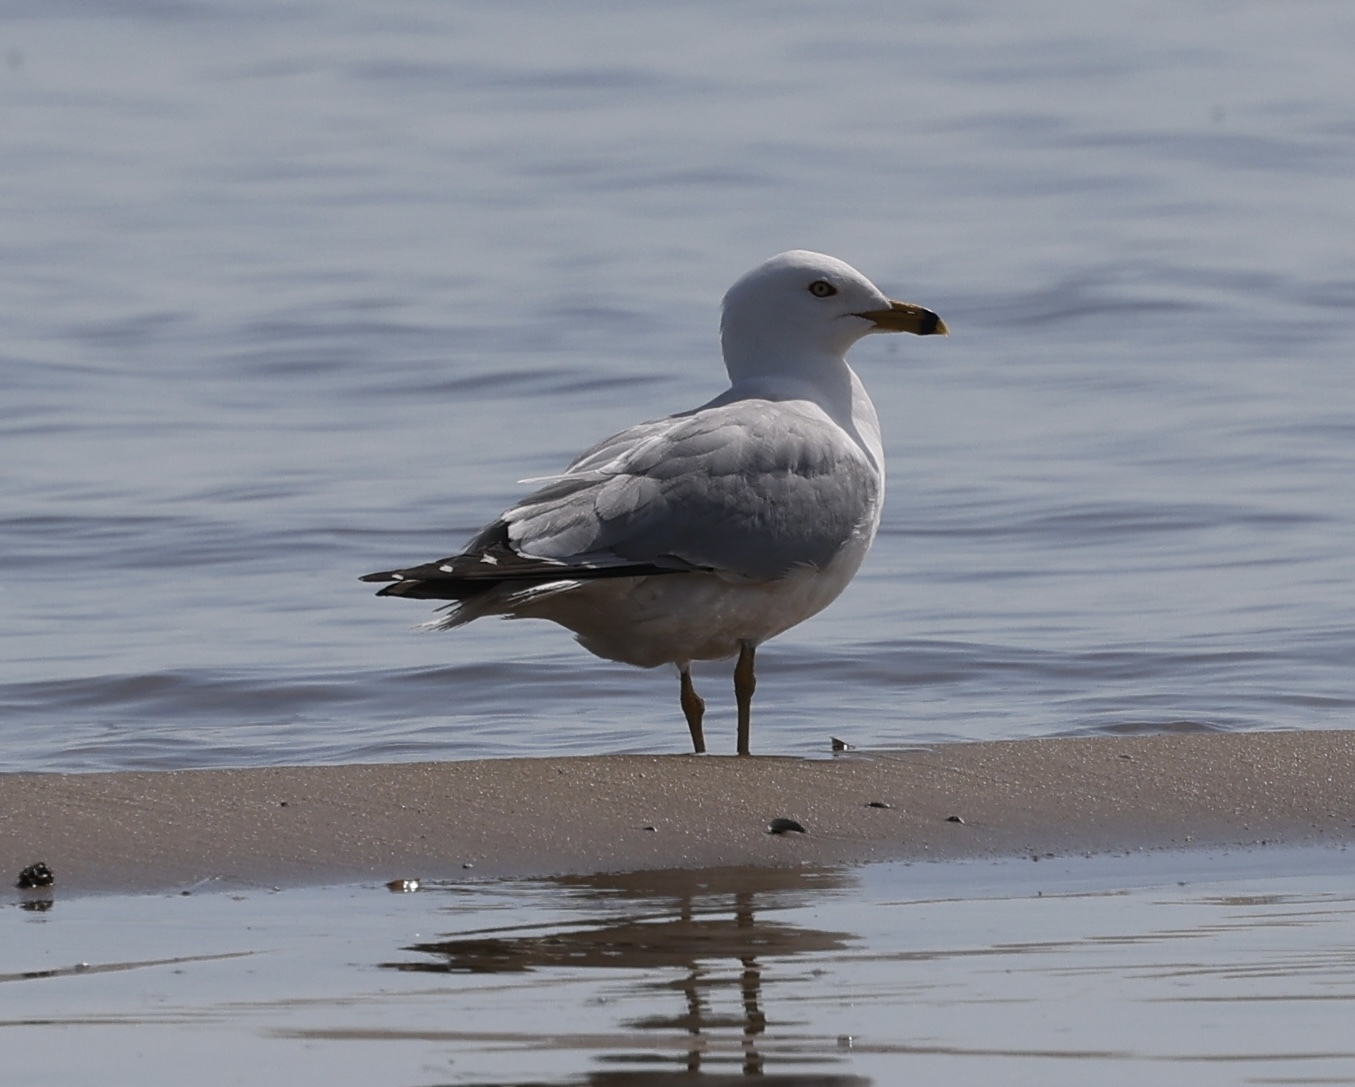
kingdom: Animalia
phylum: Chordata
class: Aves
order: Charadriiformes
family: Laridae
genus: Larus
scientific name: Larus delawarensis
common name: Ring-billed gull
